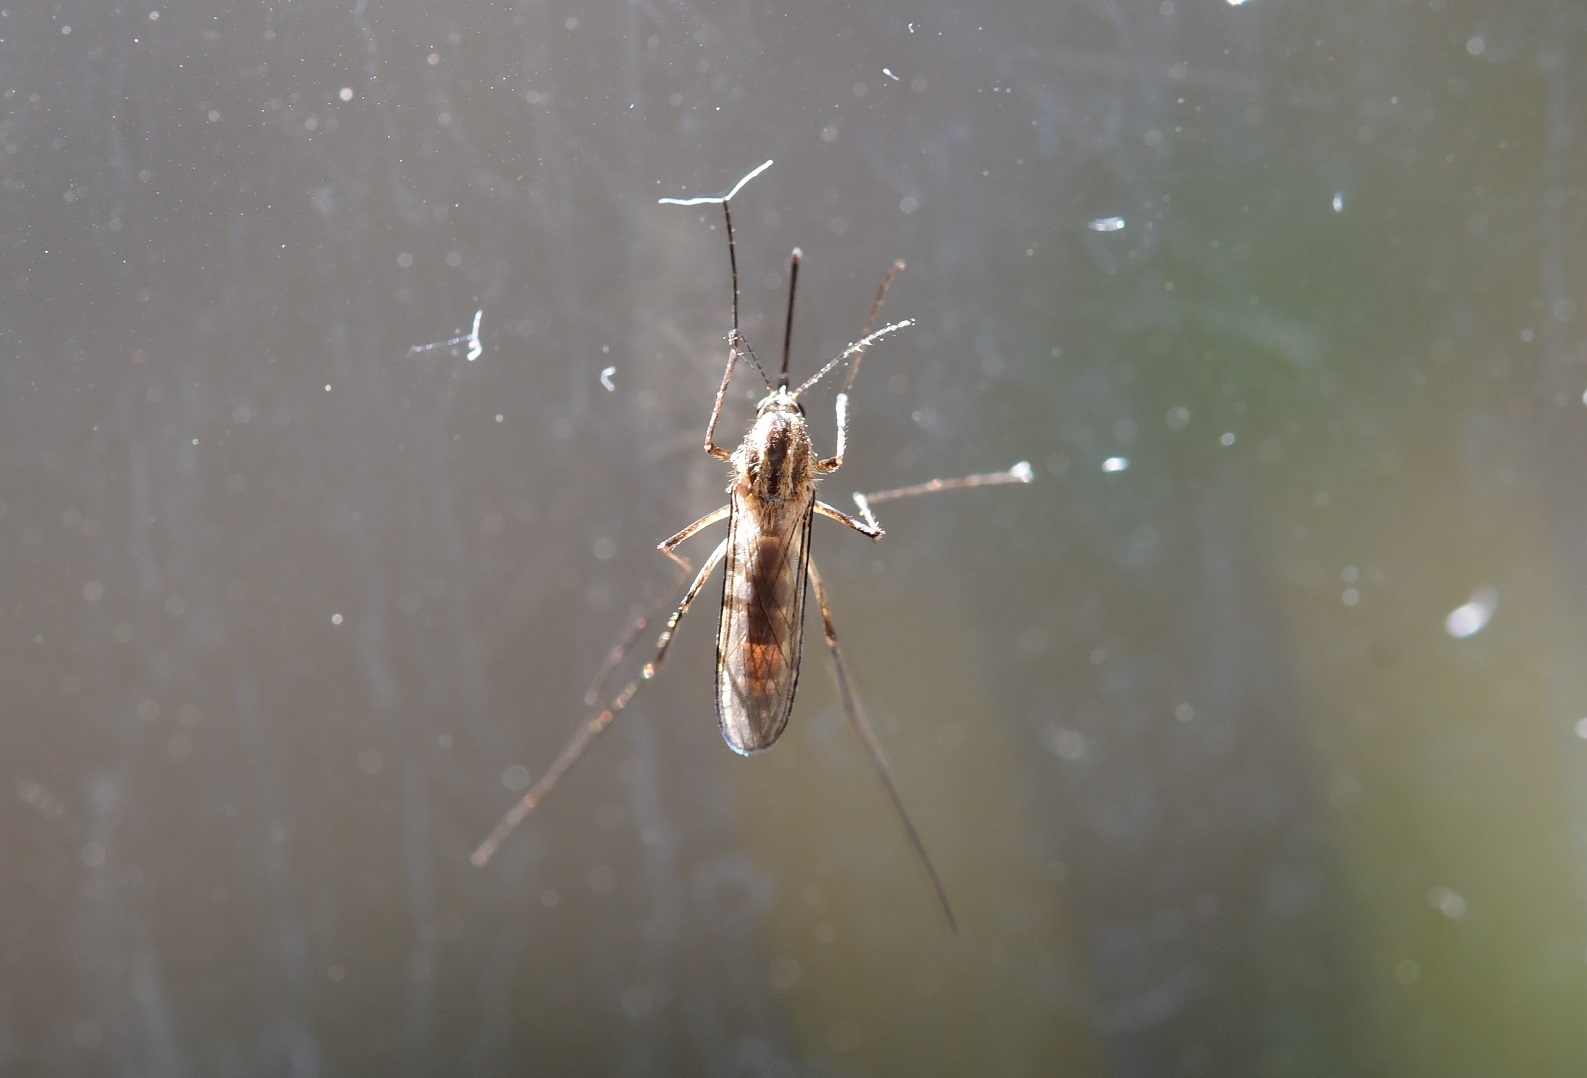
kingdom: Animalia
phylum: Arthropoda
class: Insecta
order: Diptera
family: Culicidae
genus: Aedes
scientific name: Aedes trivittatus
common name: Plains floodwater mosquito
